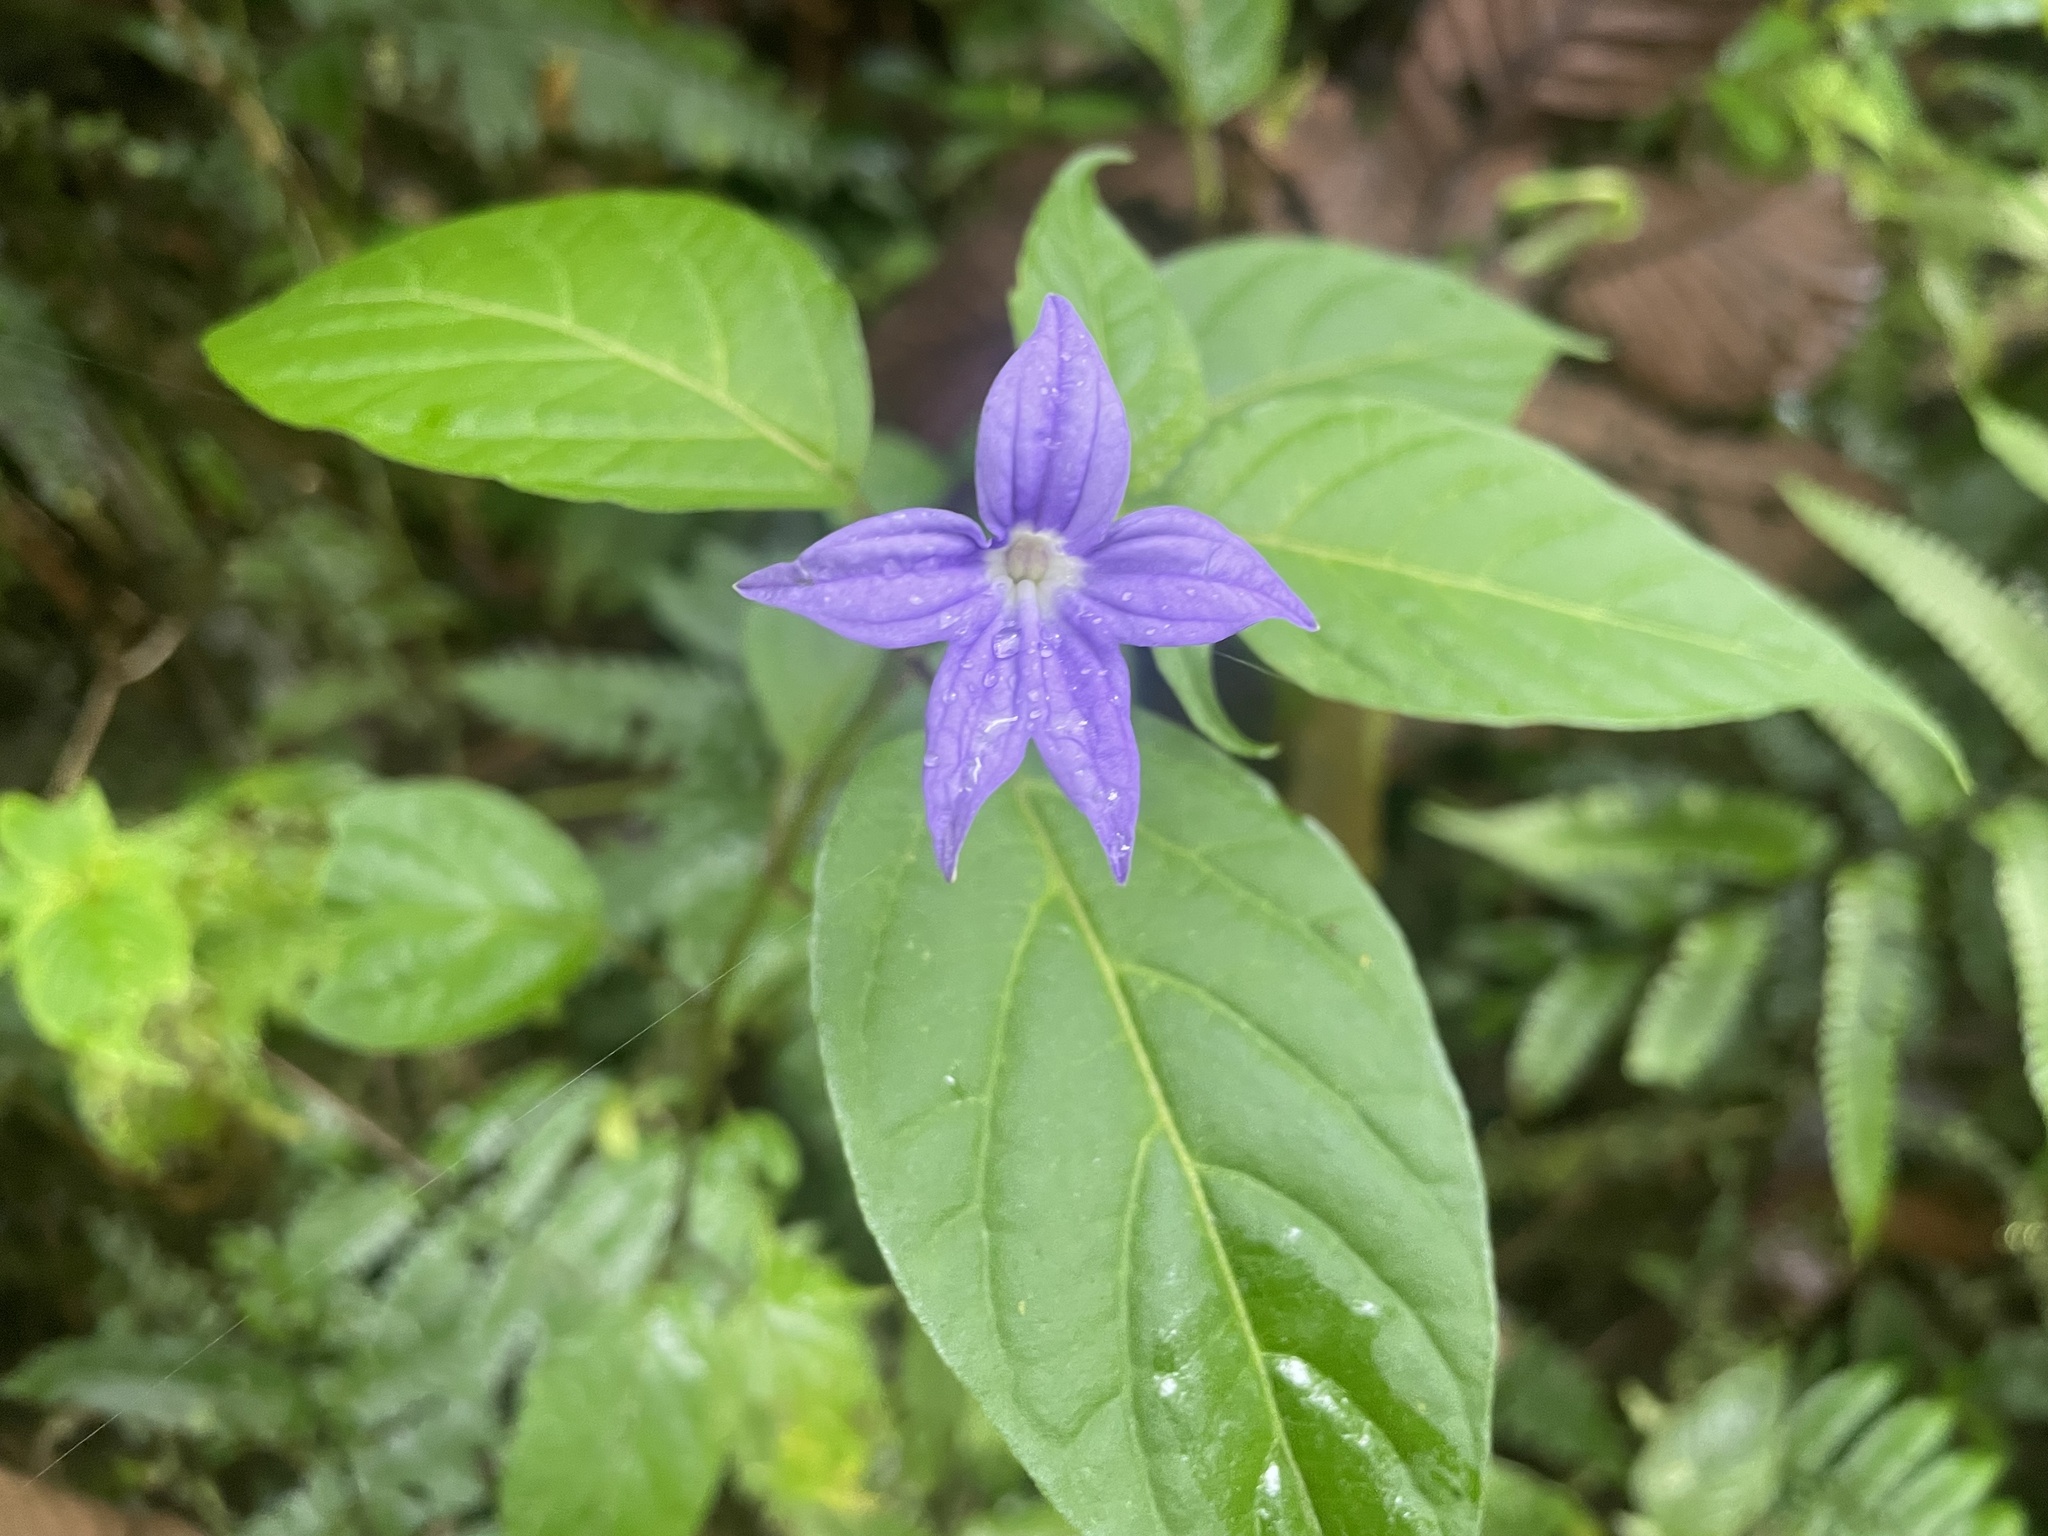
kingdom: Plantae
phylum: Tracheophyta
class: Magnoliopsida
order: Solanales
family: Solanaceae
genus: Browallia
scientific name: Browallia speciosa
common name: Bush-violet
